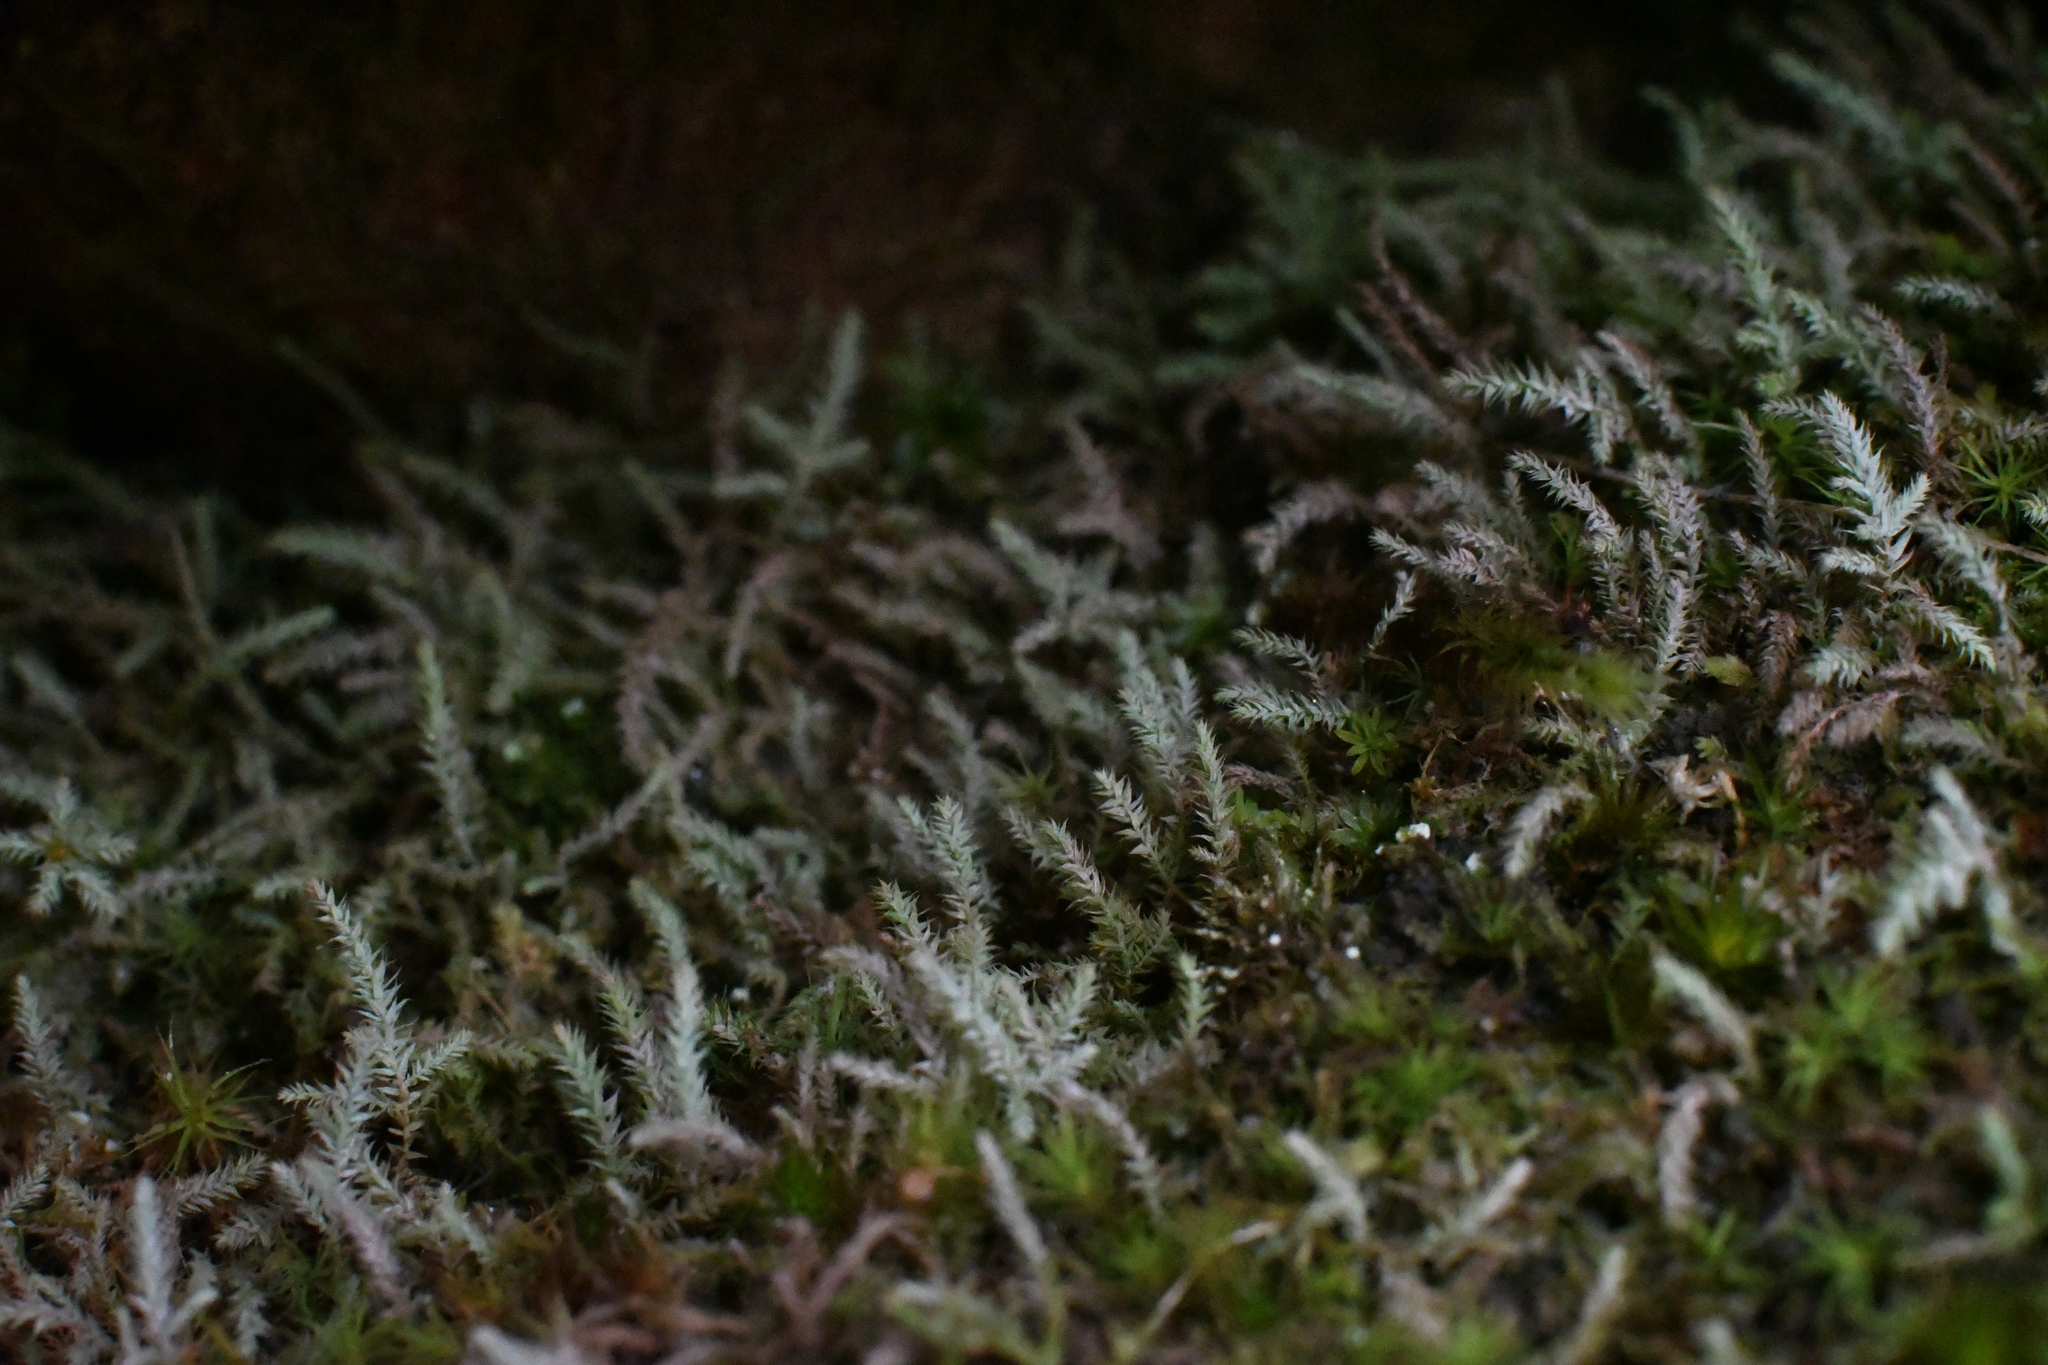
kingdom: Plantae
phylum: Bryophyta
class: Bryopsida
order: Bartramiales
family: Bartramiaceae
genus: Philonotis
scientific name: Philonotis scabrifolia
